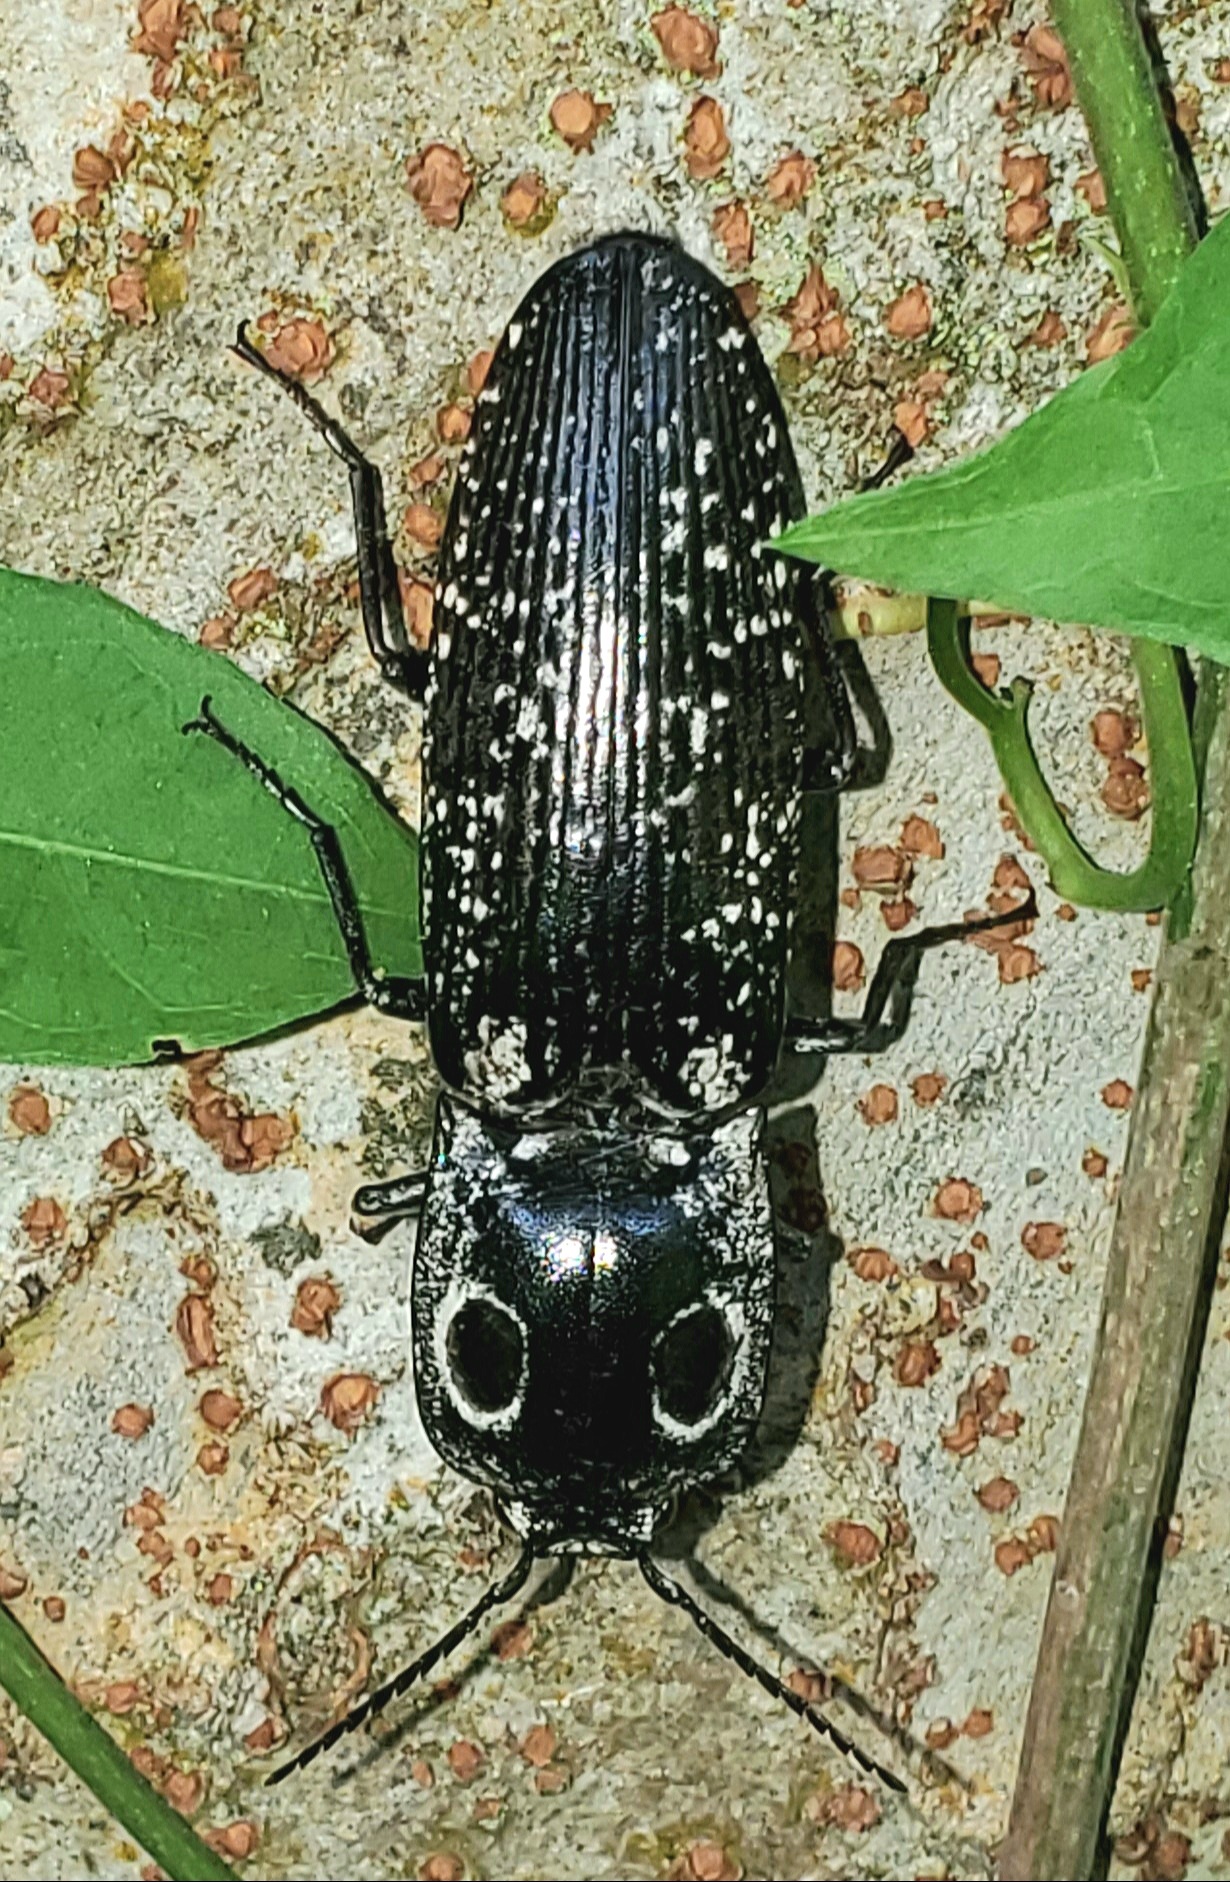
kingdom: Animalia
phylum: Arthropoda
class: Insecta
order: Coleoptera
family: Elateridae
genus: Alaus
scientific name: Alaus oculatus
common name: Eastern eyed click beetle
